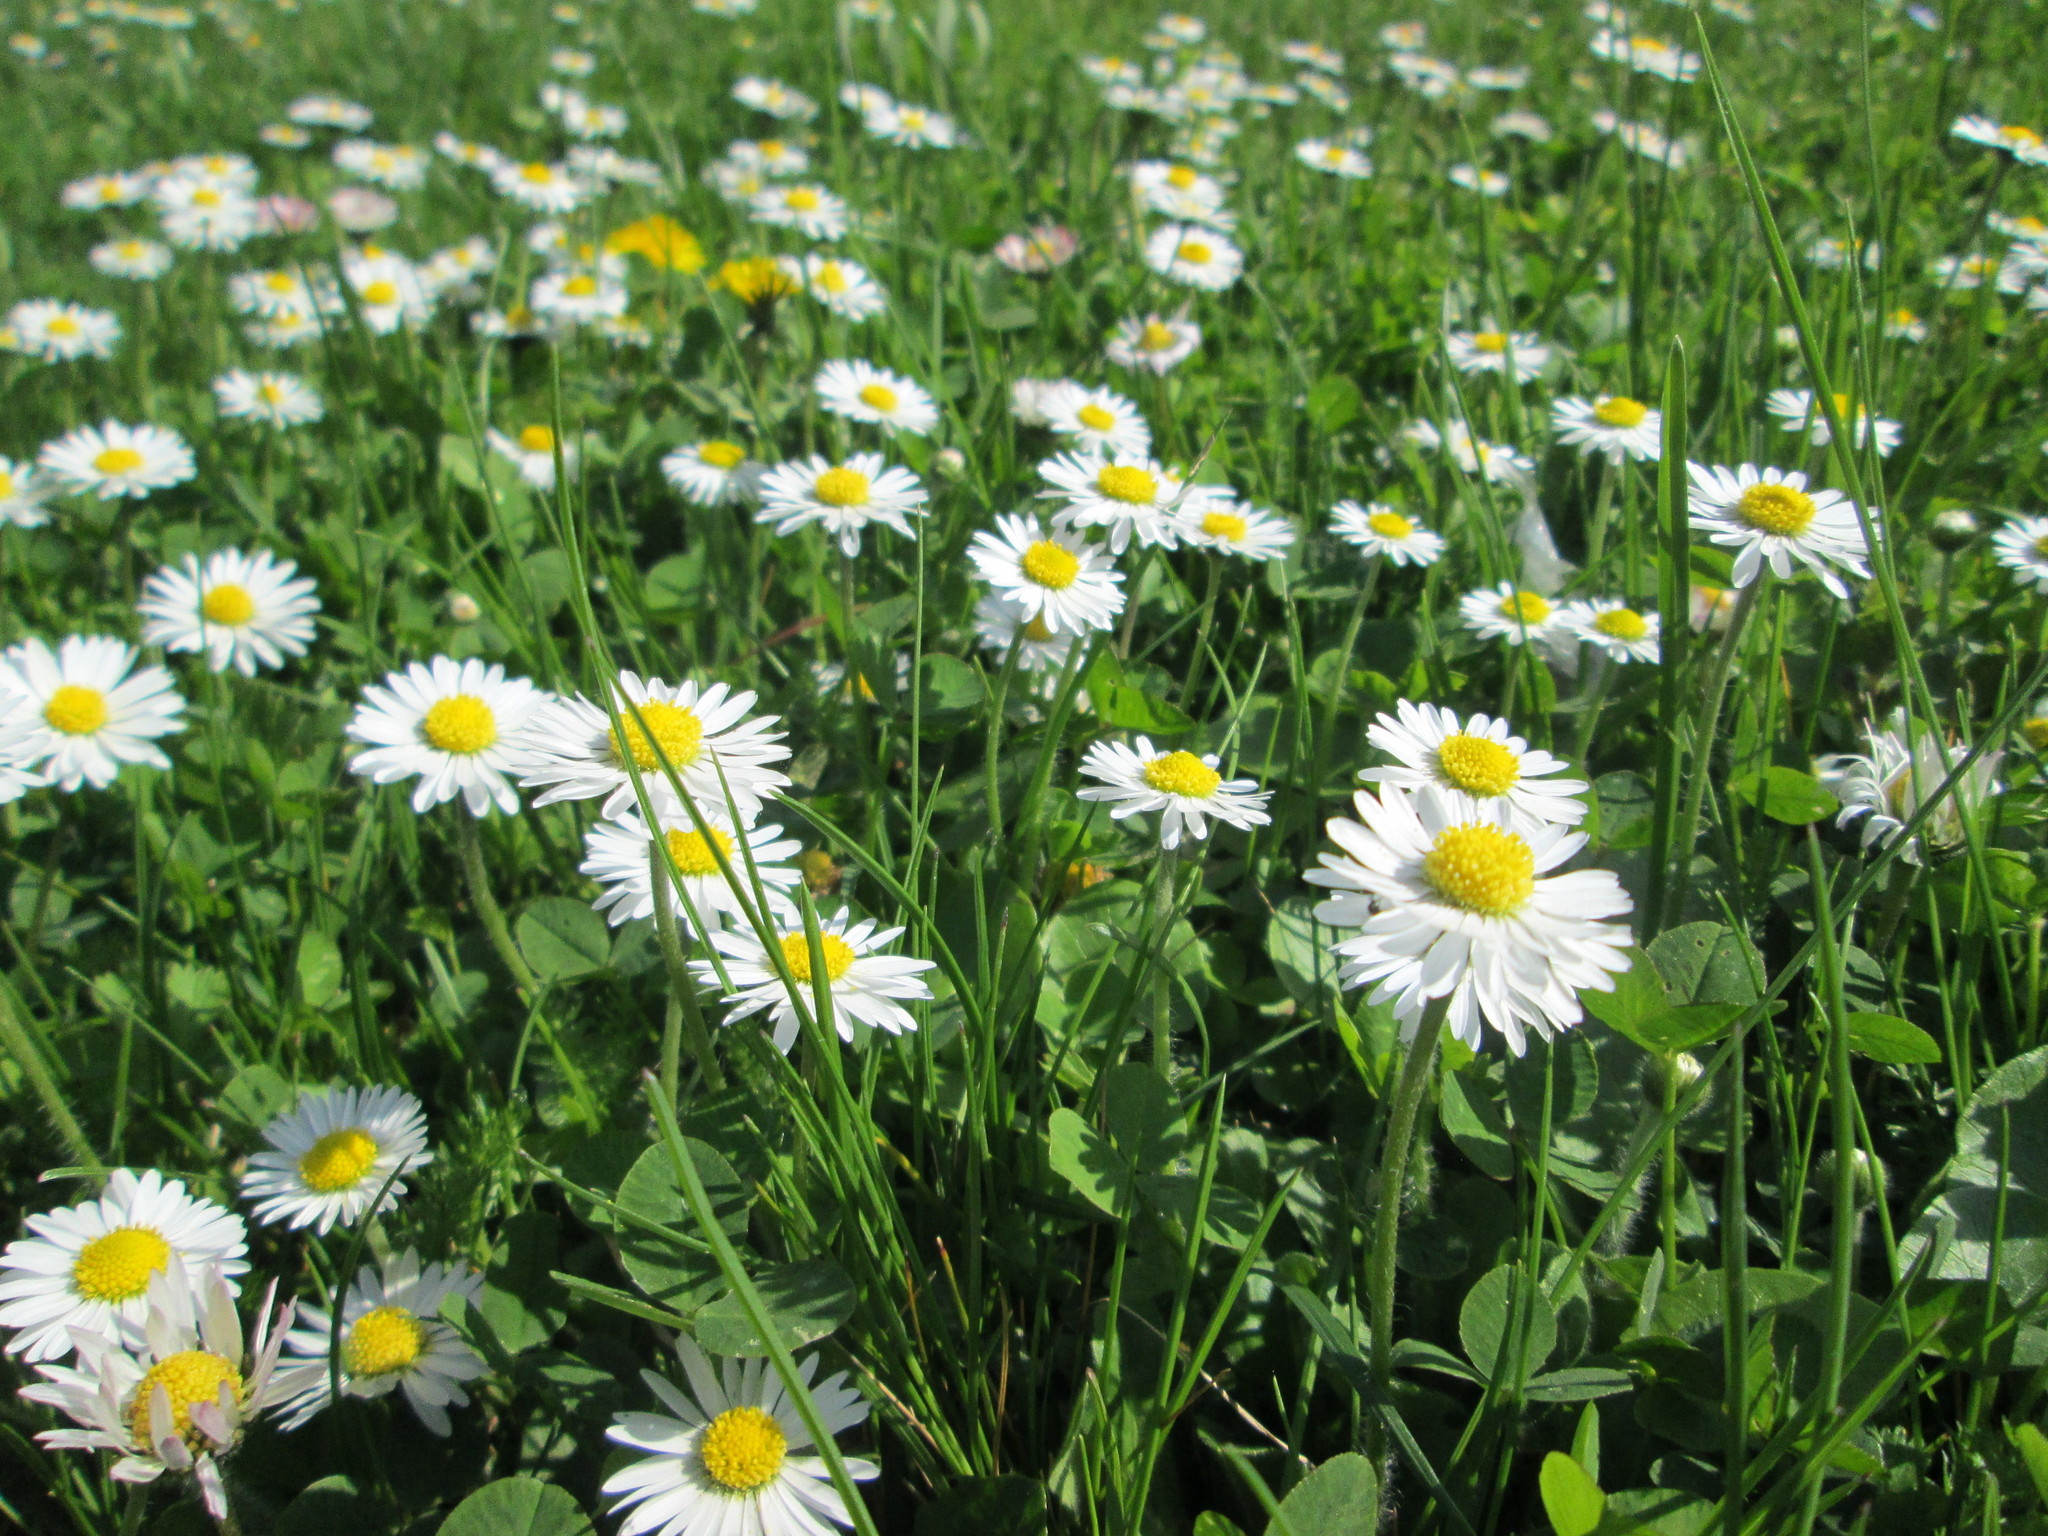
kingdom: Plantae
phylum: Tracheophyta
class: Magnoliopsida
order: Asterales
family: Asteraceae
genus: Bellis
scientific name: Bellis perennis
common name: Lawndaisy
